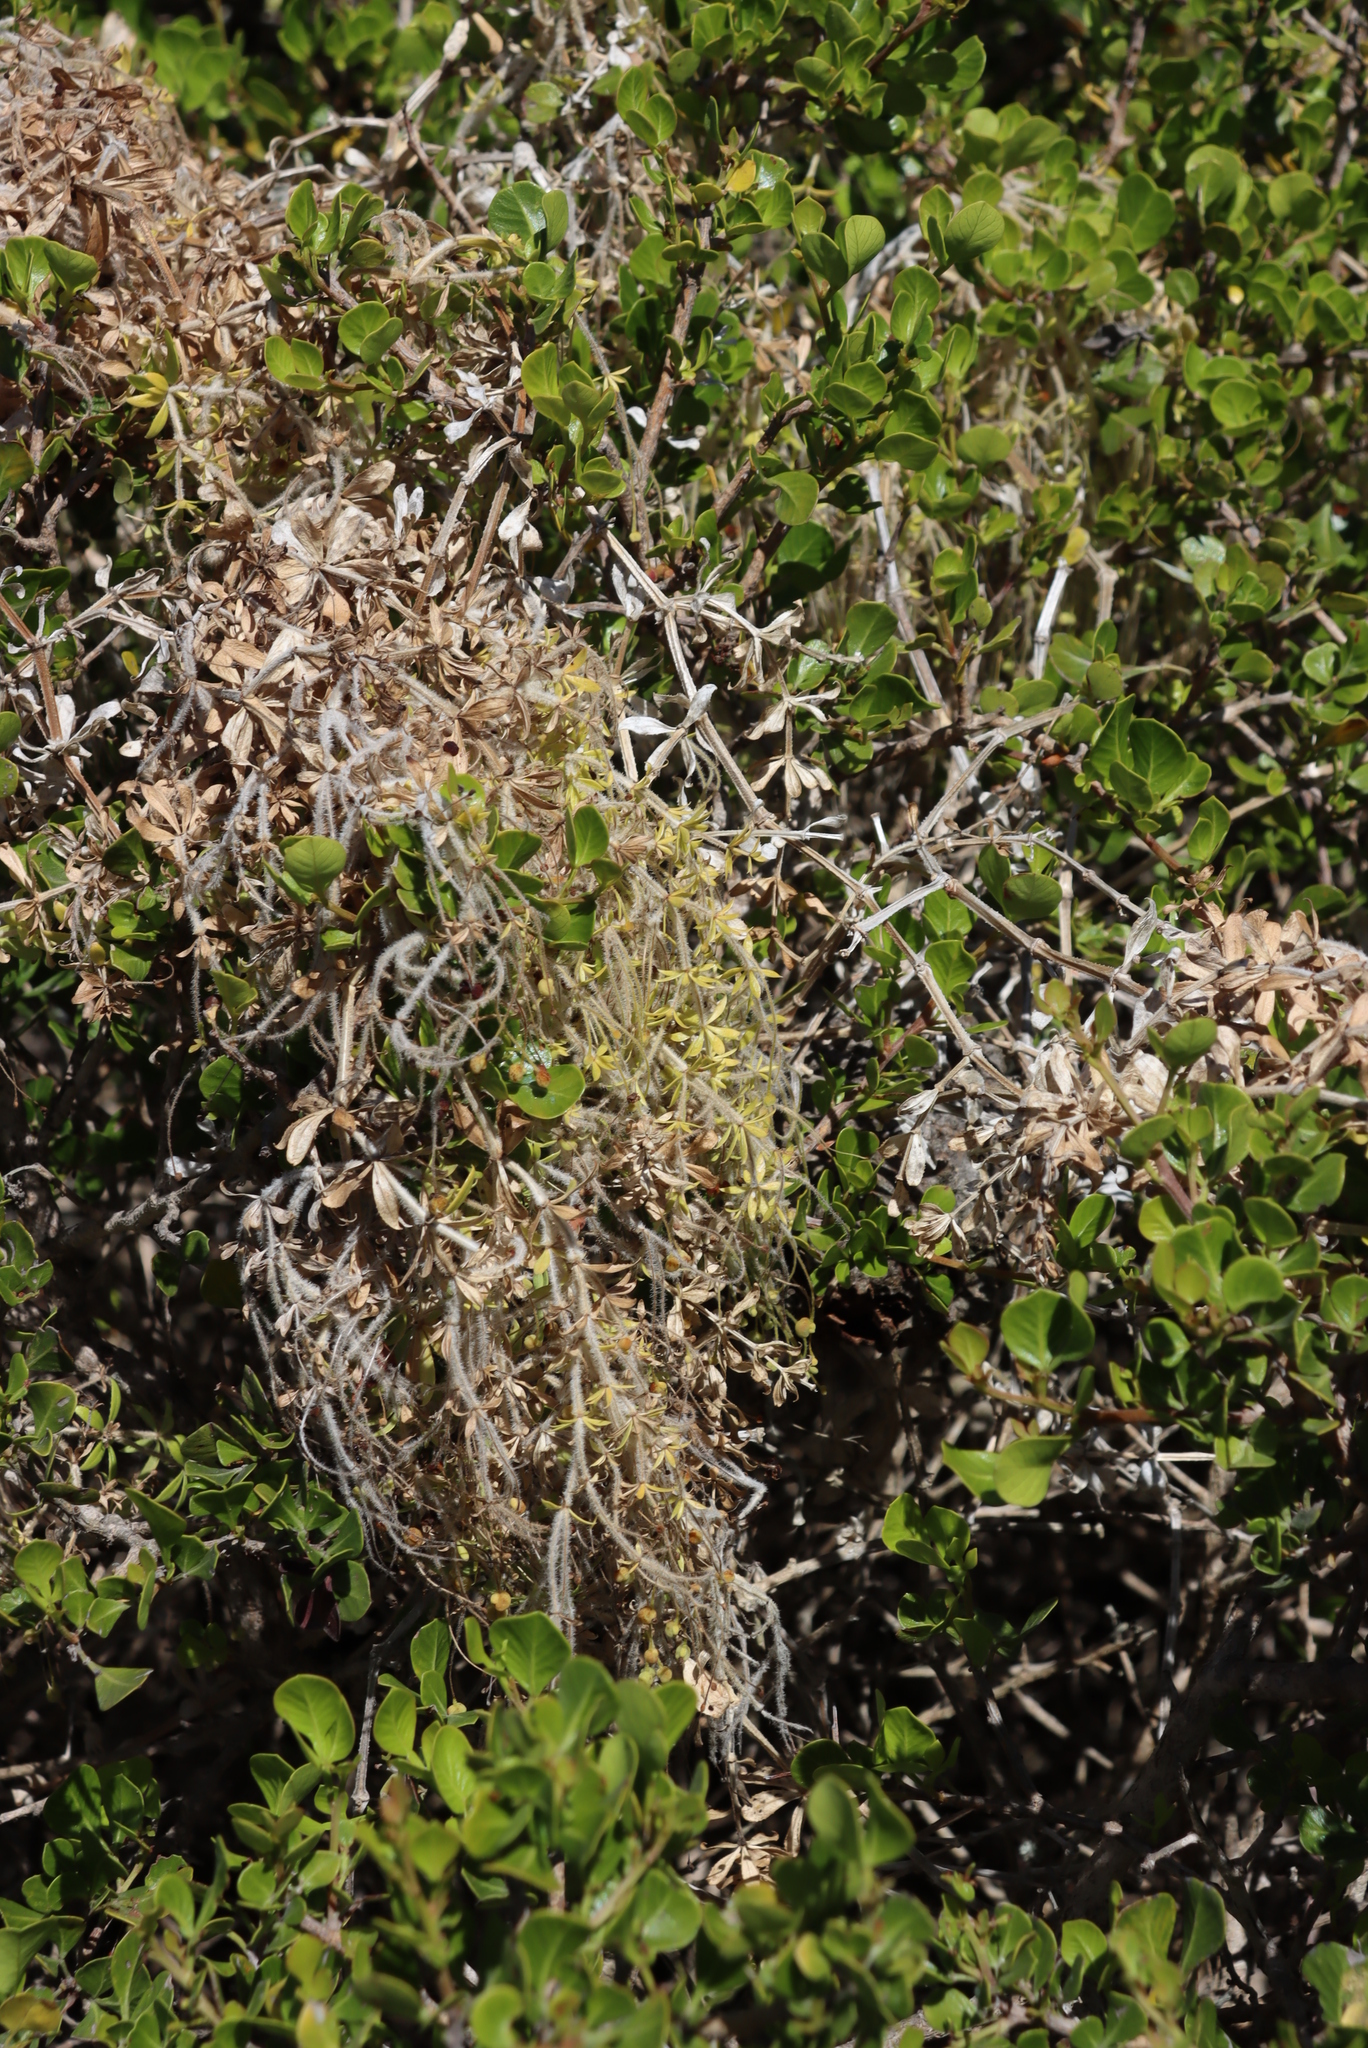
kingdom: Plantae
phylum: Tracheophyta
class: Magnoliopsida
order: Gentianales
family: Rubiaceae
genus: Galium
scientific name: Galium tomentosum
